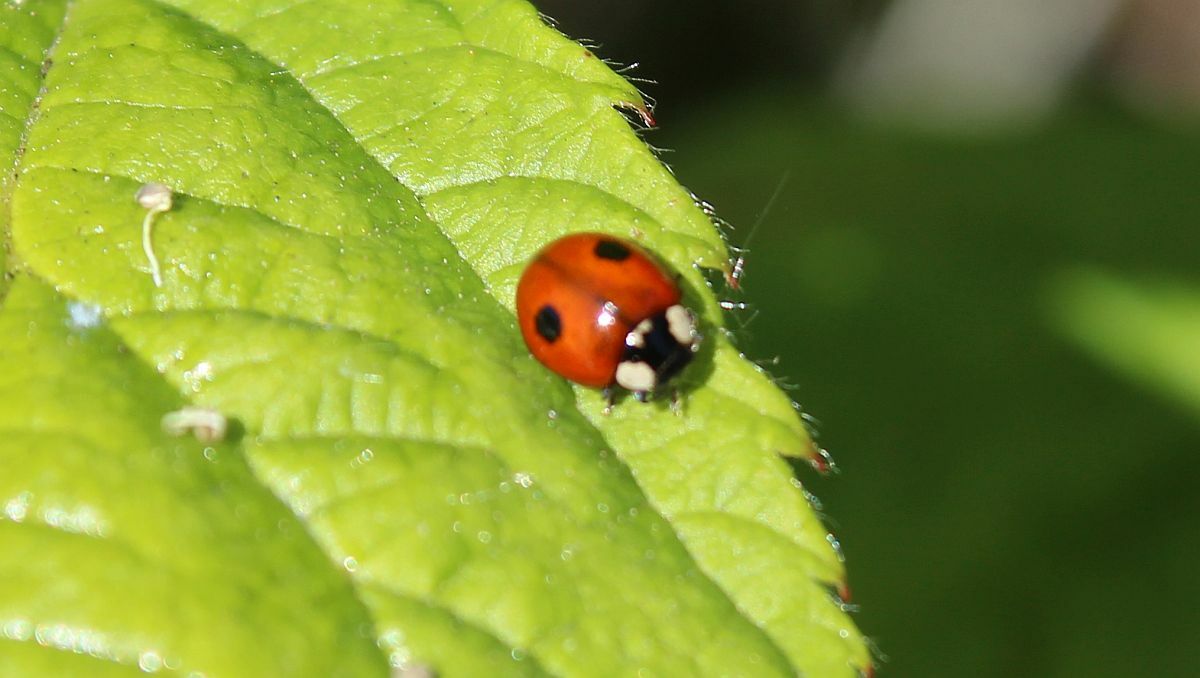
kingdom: Animalia
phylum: Arthropoda
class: Insecta
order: Coleoptera
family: Coccinellidae
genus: Adalia
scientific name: Adalia bipunctata
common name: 2-spot ladybird
